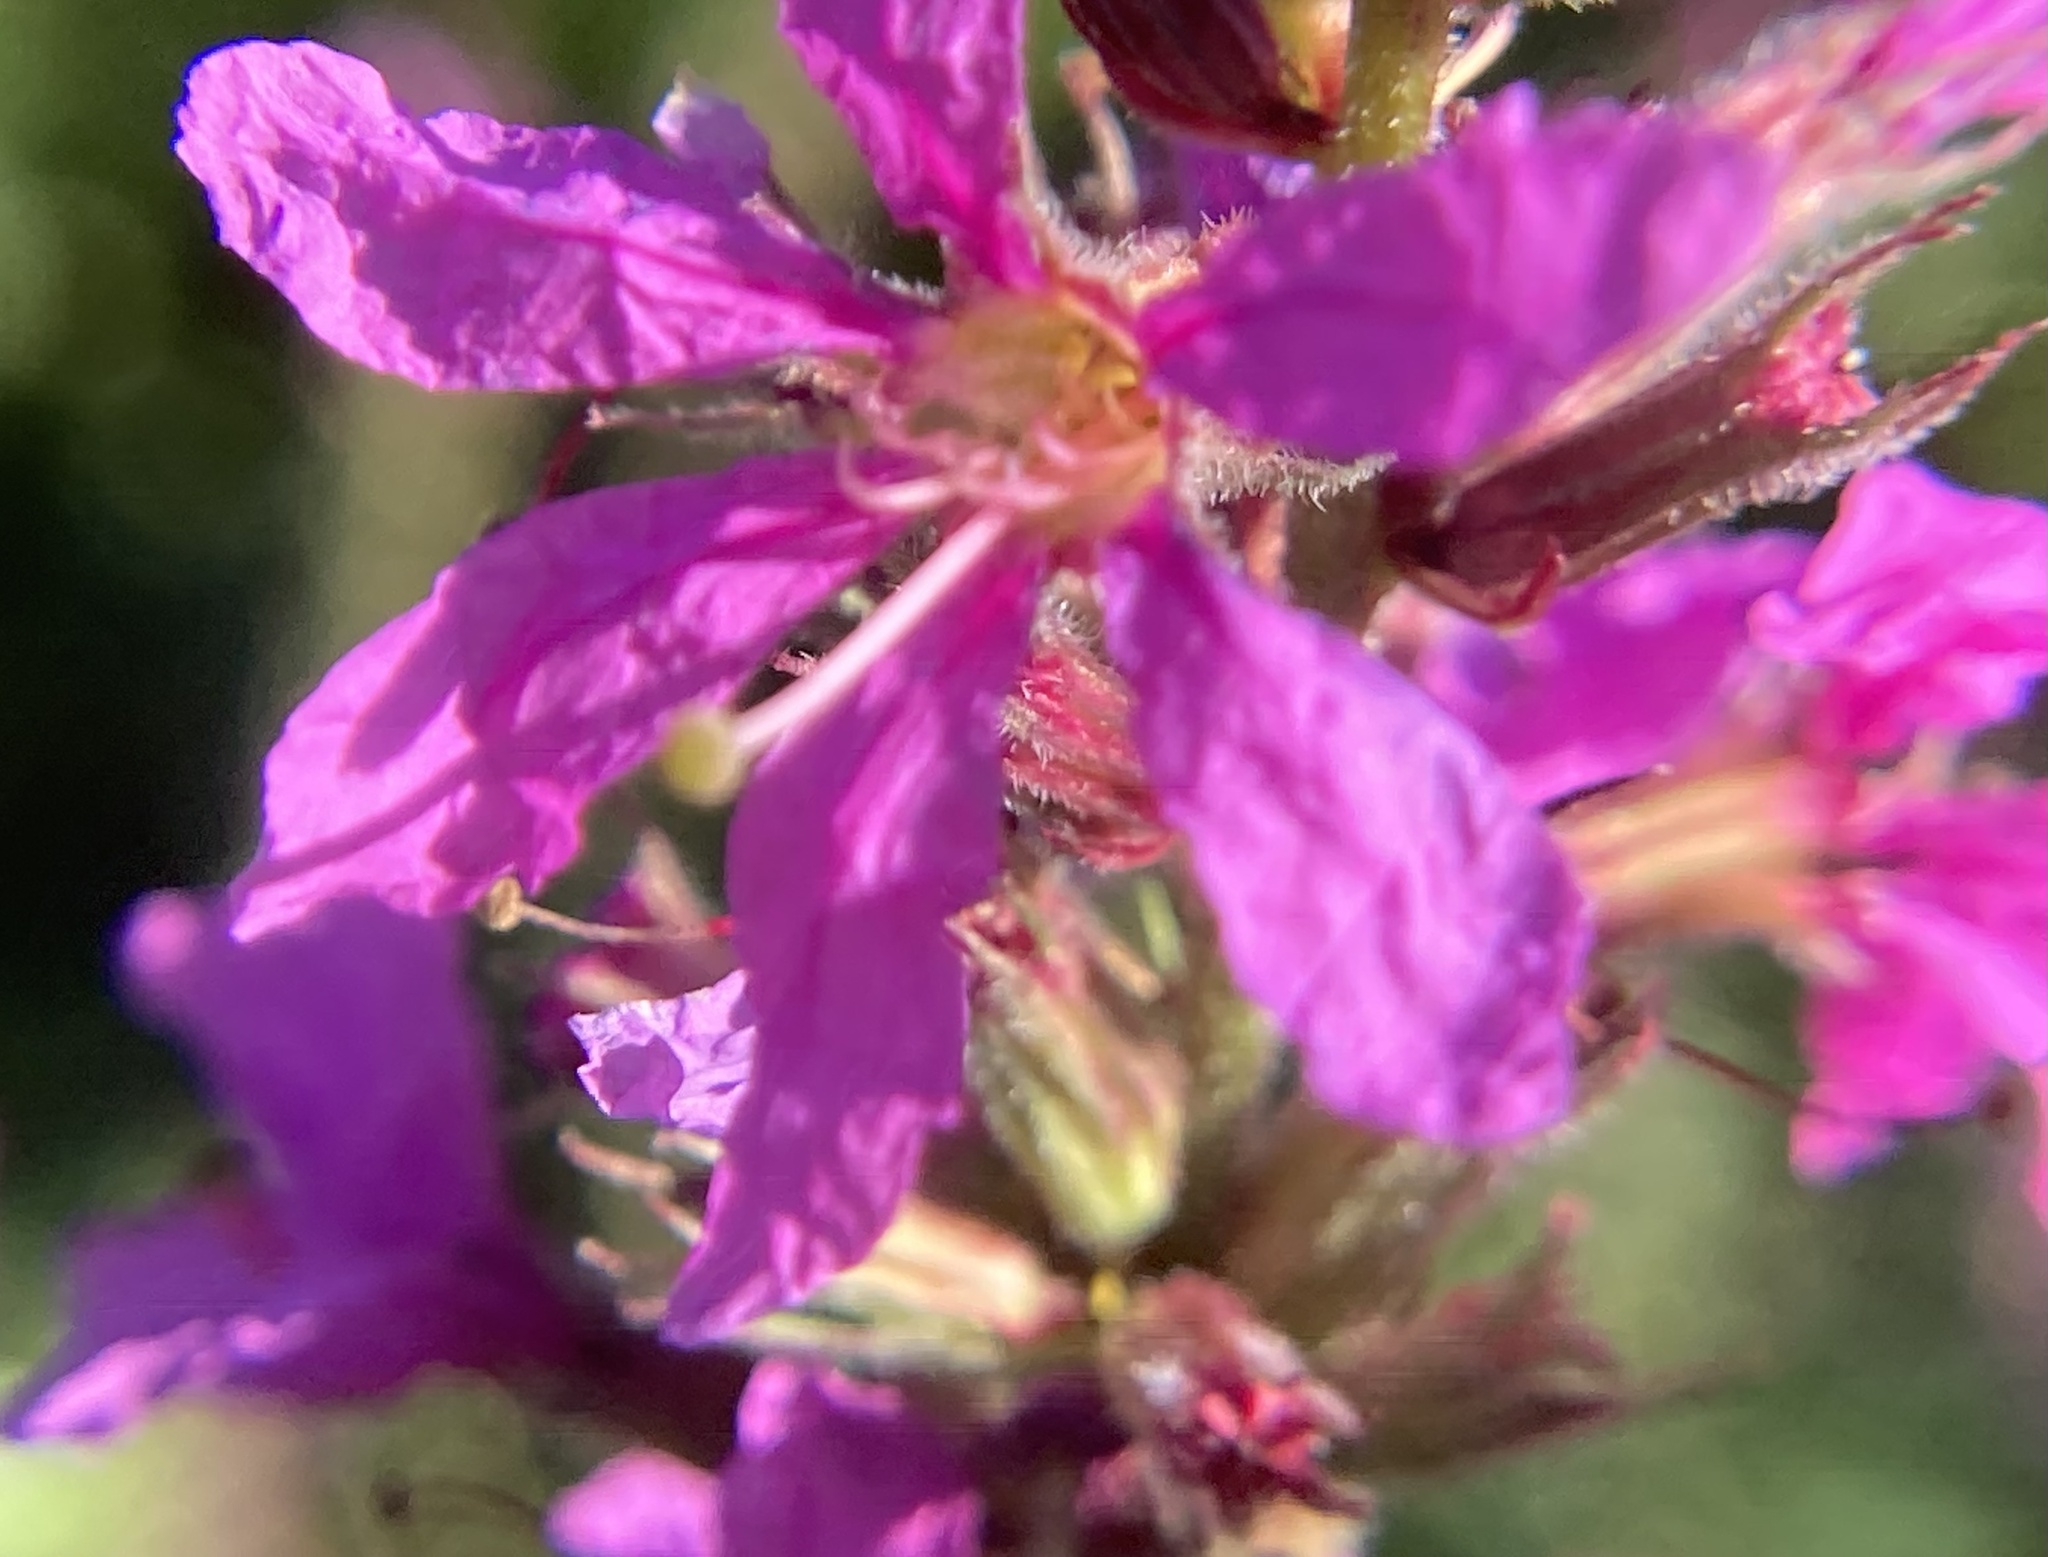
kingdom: Plantae
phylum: Tracheophyta
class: Magnoliopsida
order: Myrtales
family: Lythraceae
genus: Lythrum
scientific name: Lythrum salicaria
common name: Purple loosestrife
